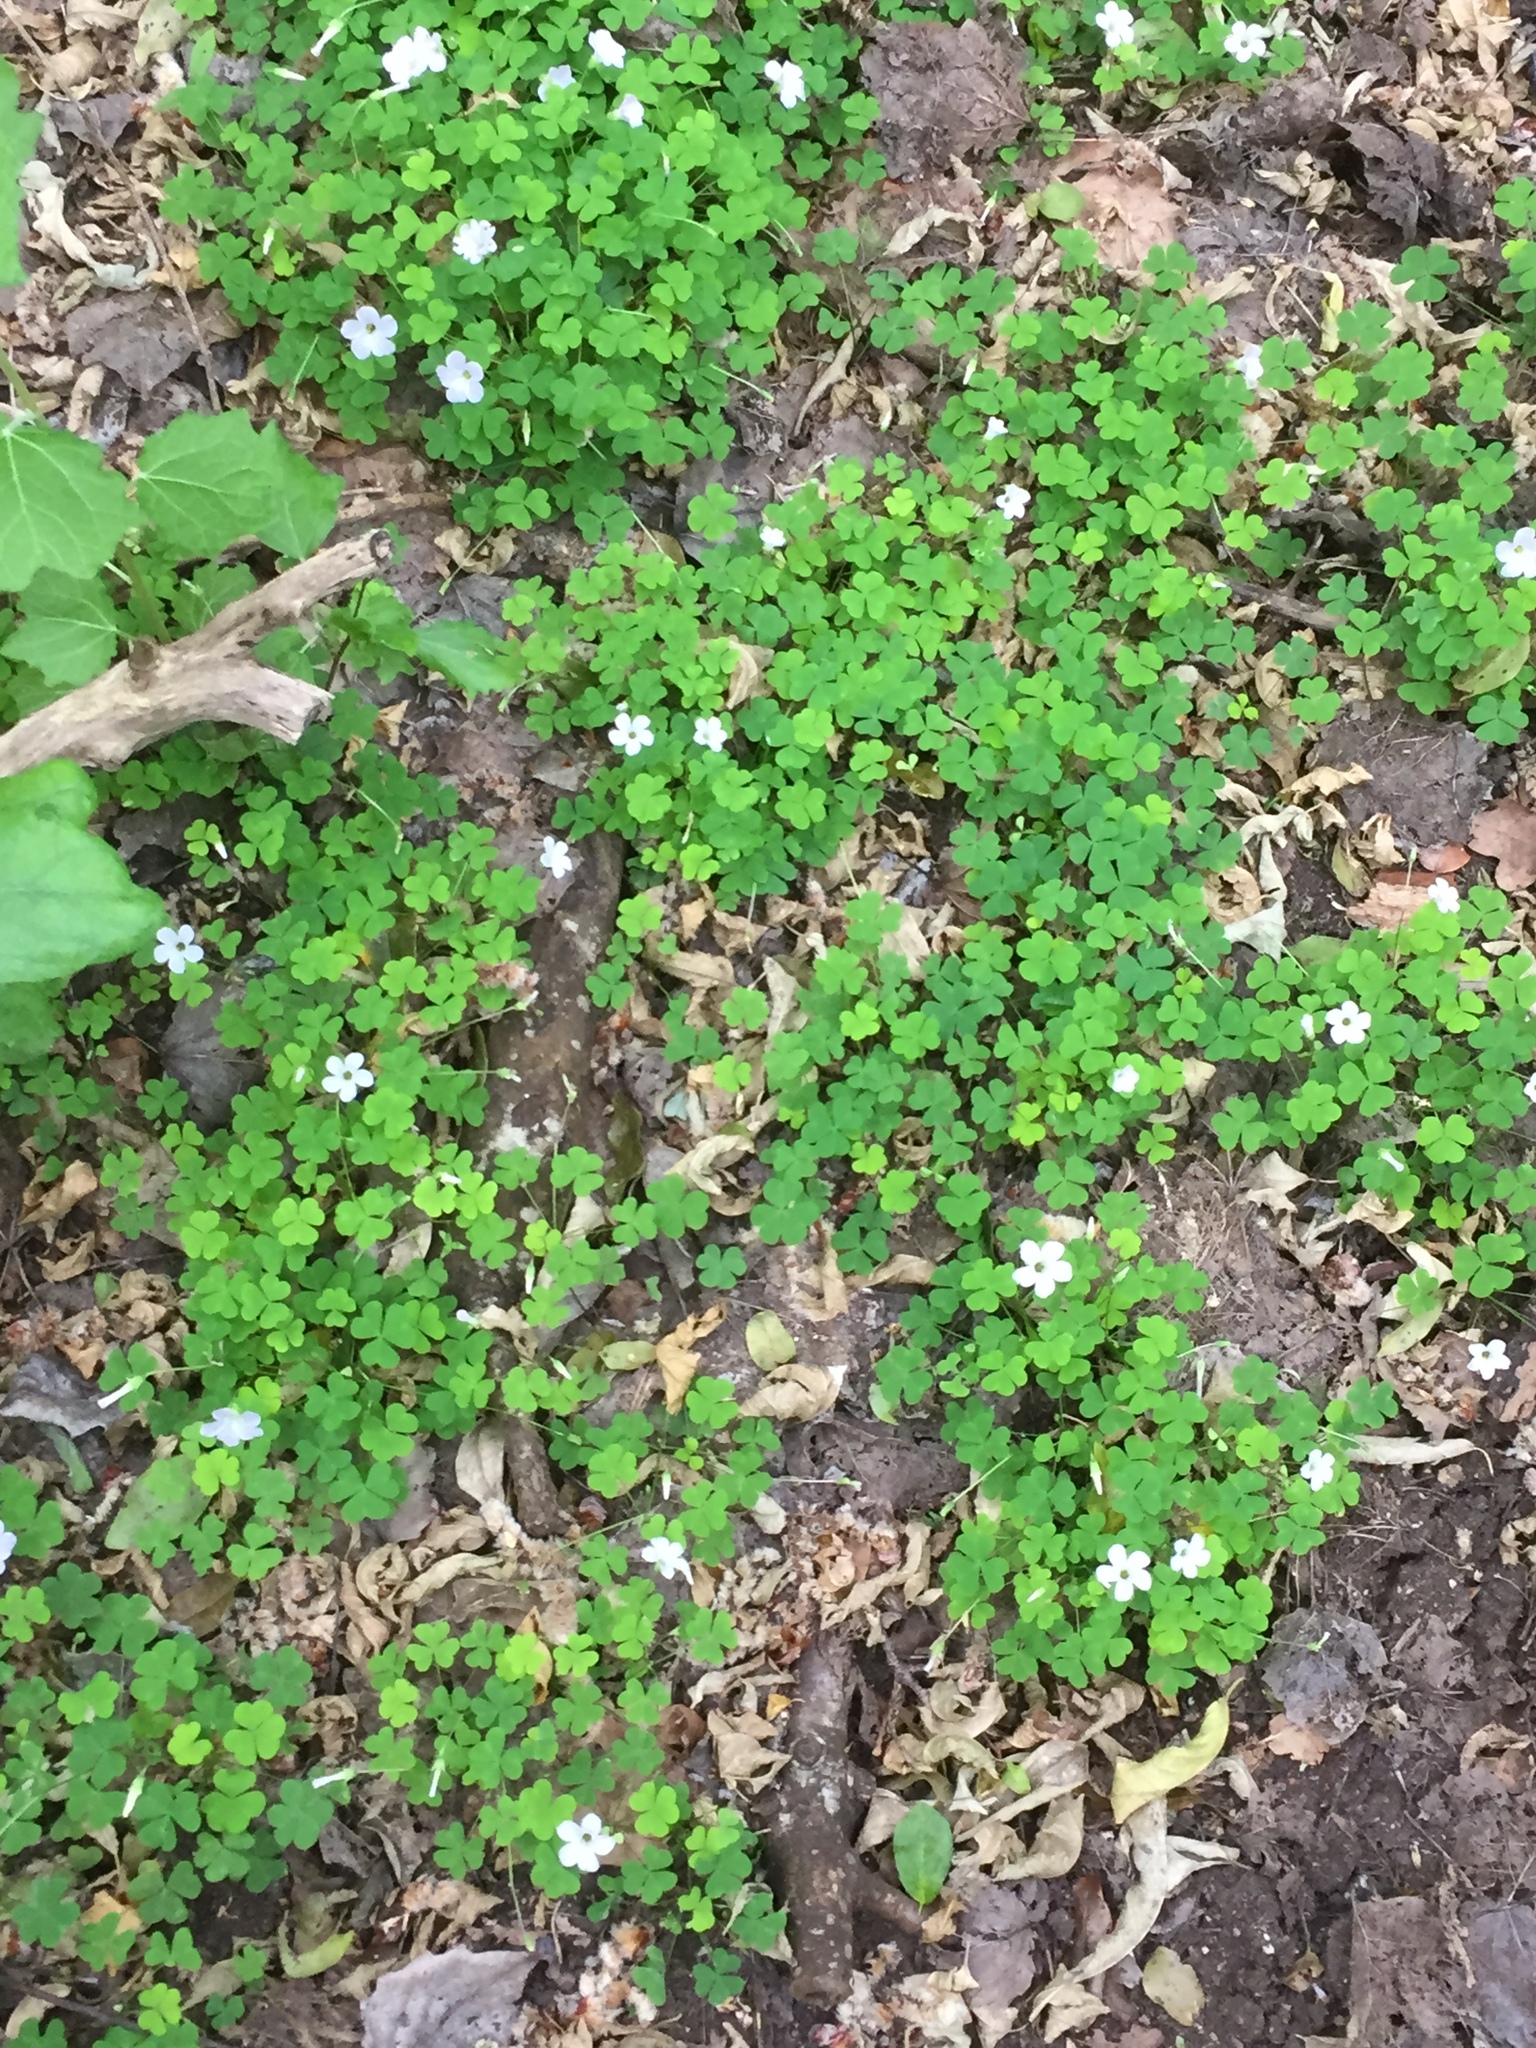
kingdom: Plantae
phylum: Tracheophyta
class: Magnoliopsida
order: Oxalidales
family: Oxalidaceae
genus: Oxalis
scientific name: Oxalis incarnata
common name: Pale pink-sorrel
